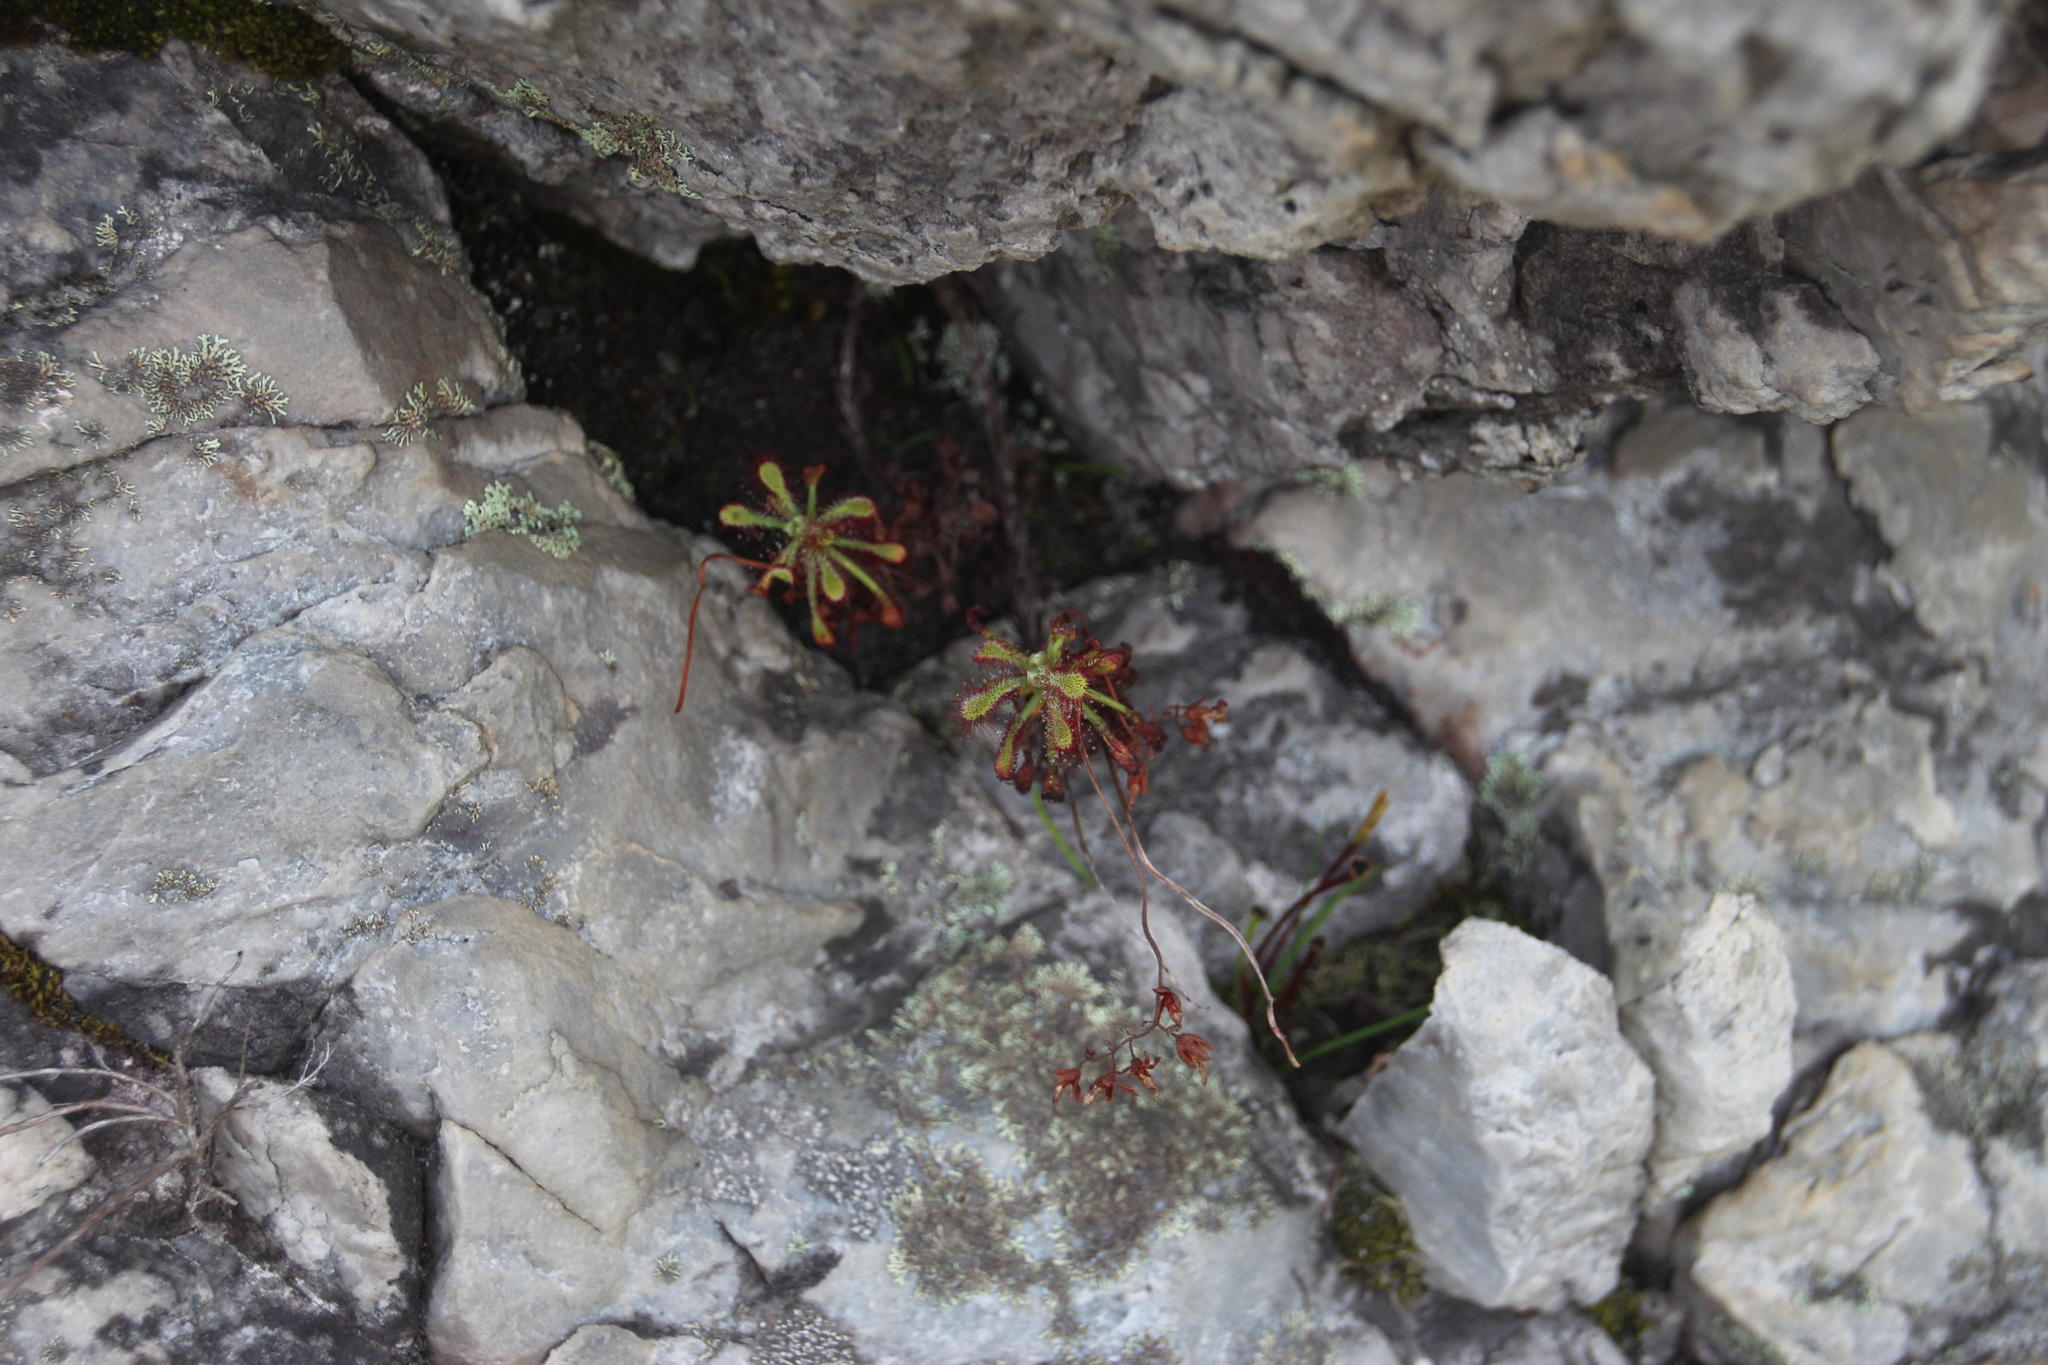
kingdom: Plantae
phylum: Tracheophyta
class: Magnoliopsida
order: Caryophyllales
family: Droseraceae
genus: Drosera
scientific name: Drosera glabripes
